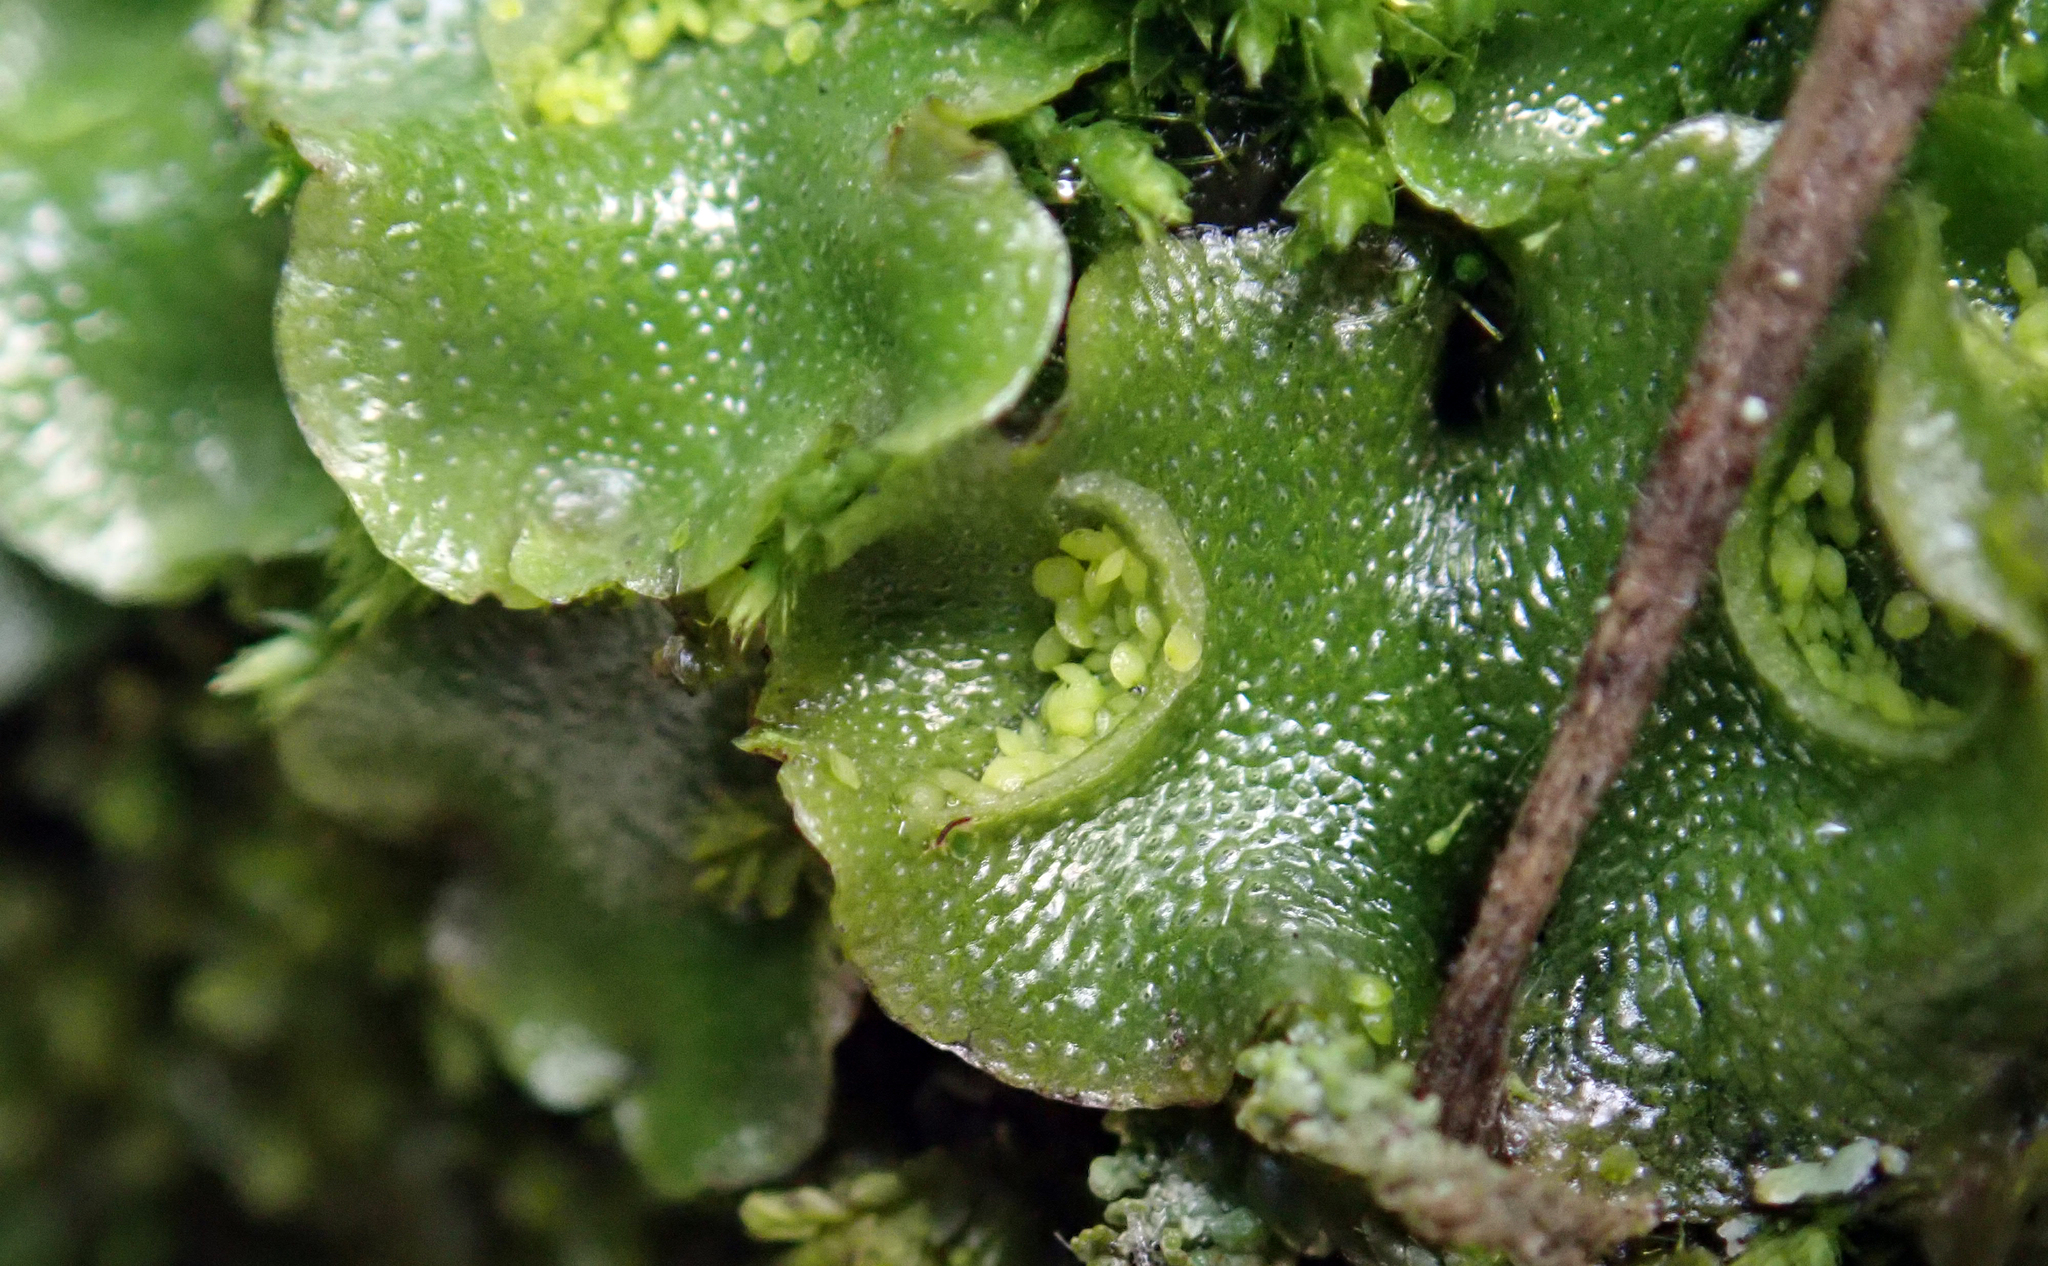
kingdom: Plantae
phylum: Marchantiophyta
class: Marchantiopsida
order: Lunulariales
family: Lunulariaceae
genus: Lunularia
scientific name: Lunularia cruciata
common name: Crescent-cup liverwort
